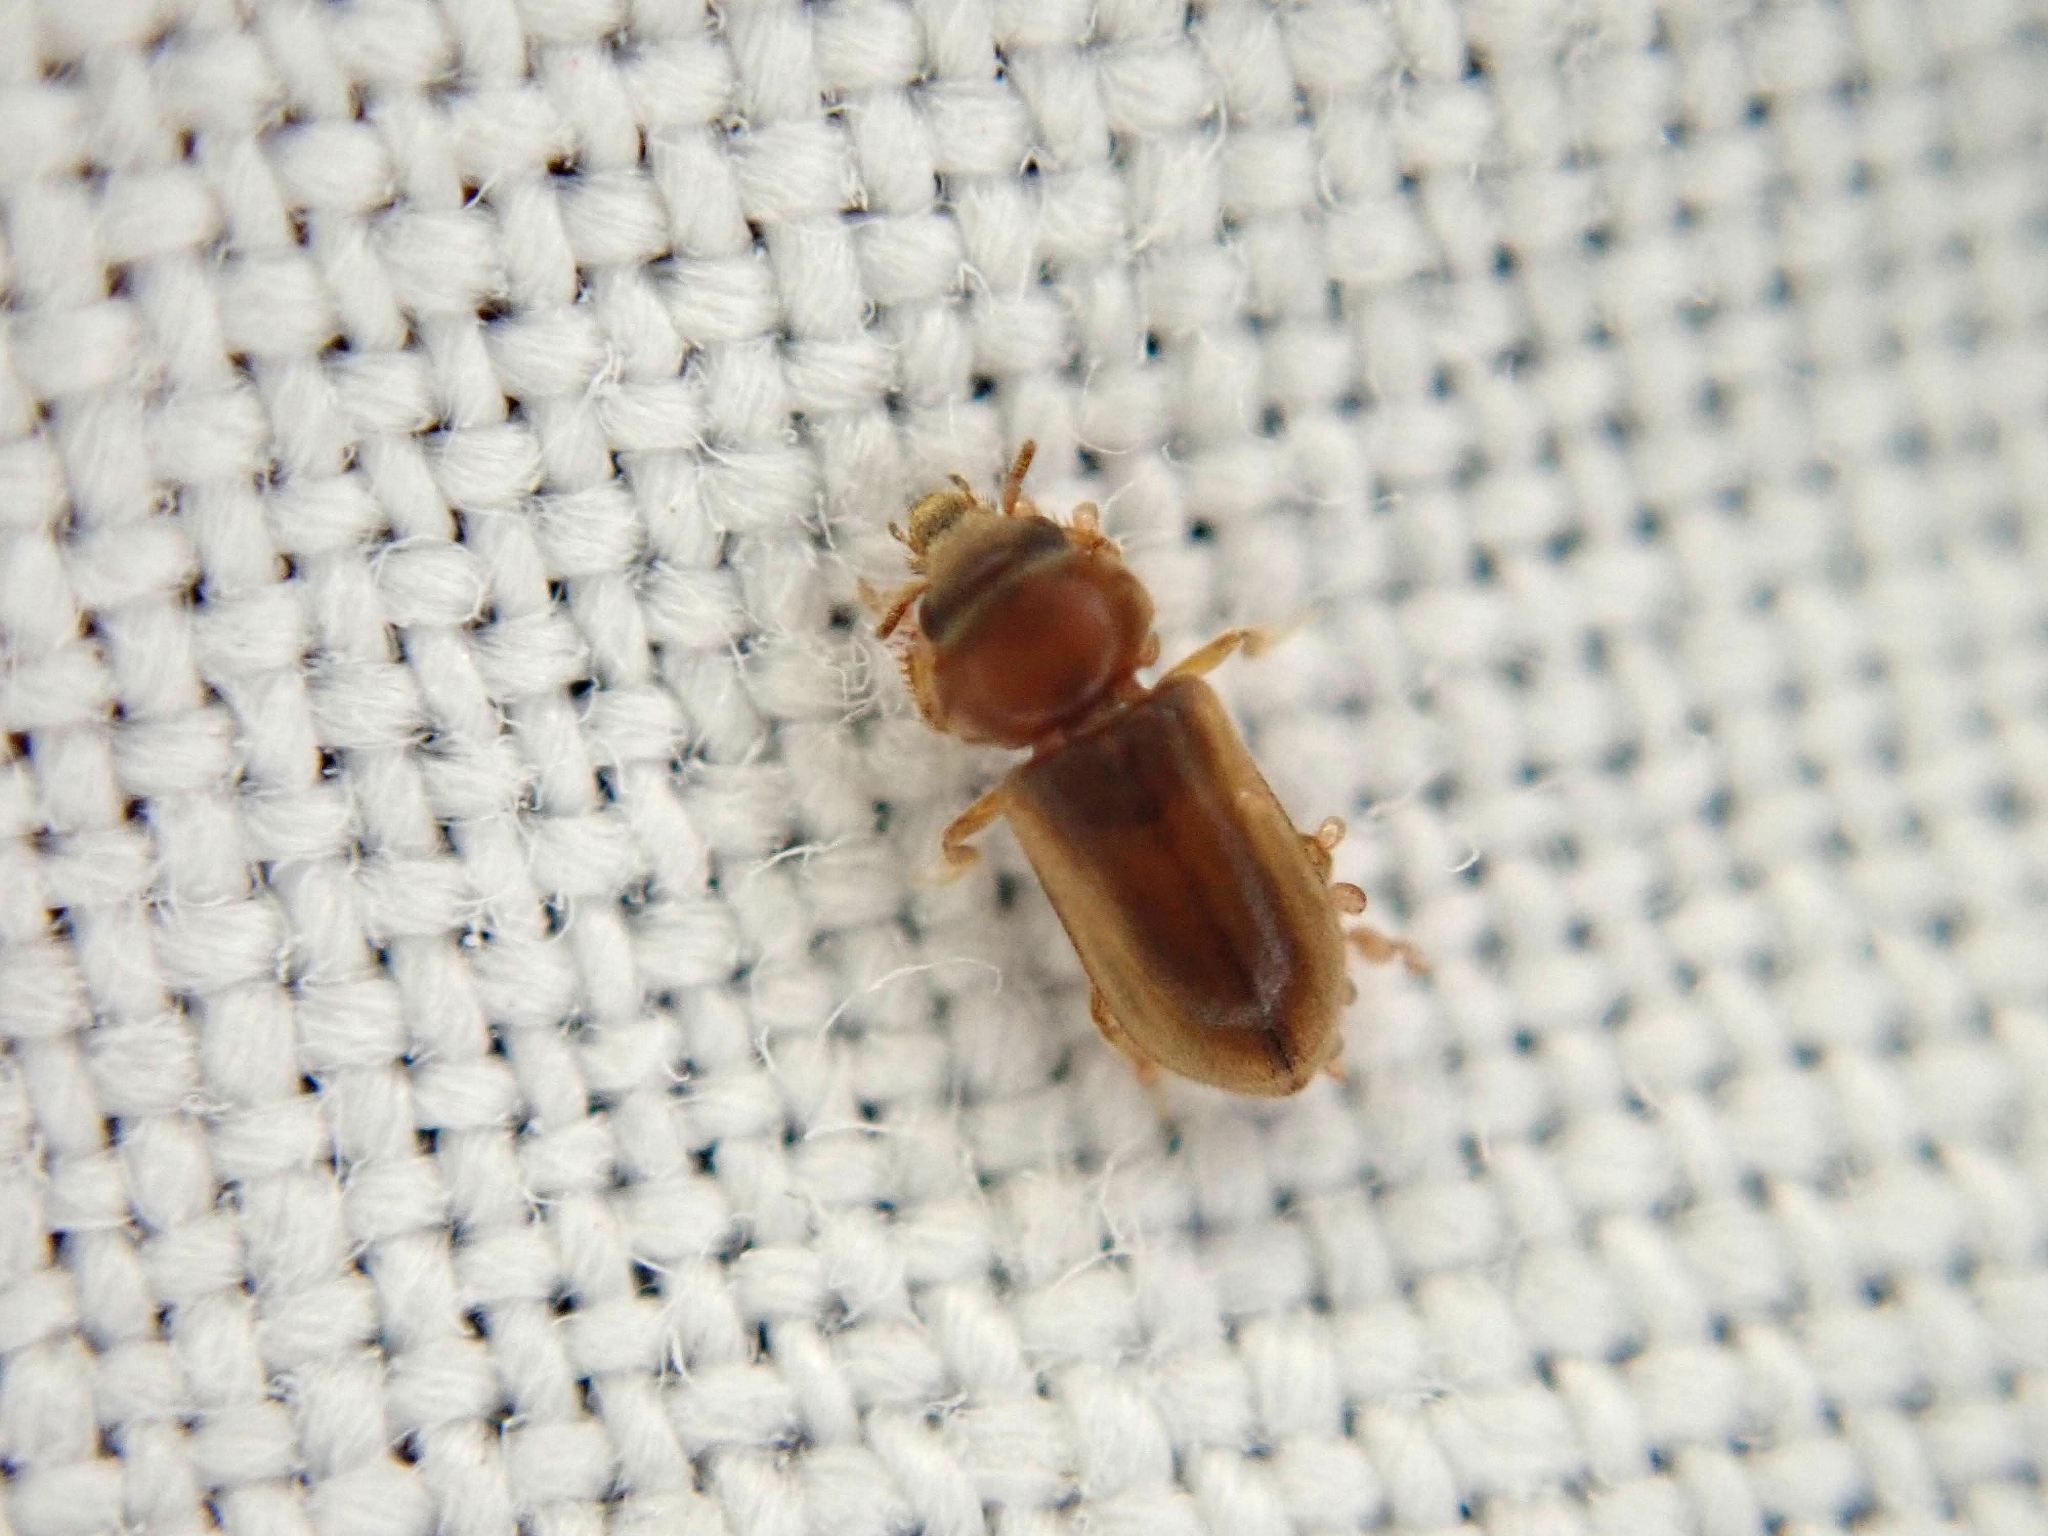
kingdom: Animalia
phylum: Arthropoda
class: Insecta
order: Coleoptera
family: Heteroceridae
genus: Tropicus
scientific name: Tropicus pusillus
